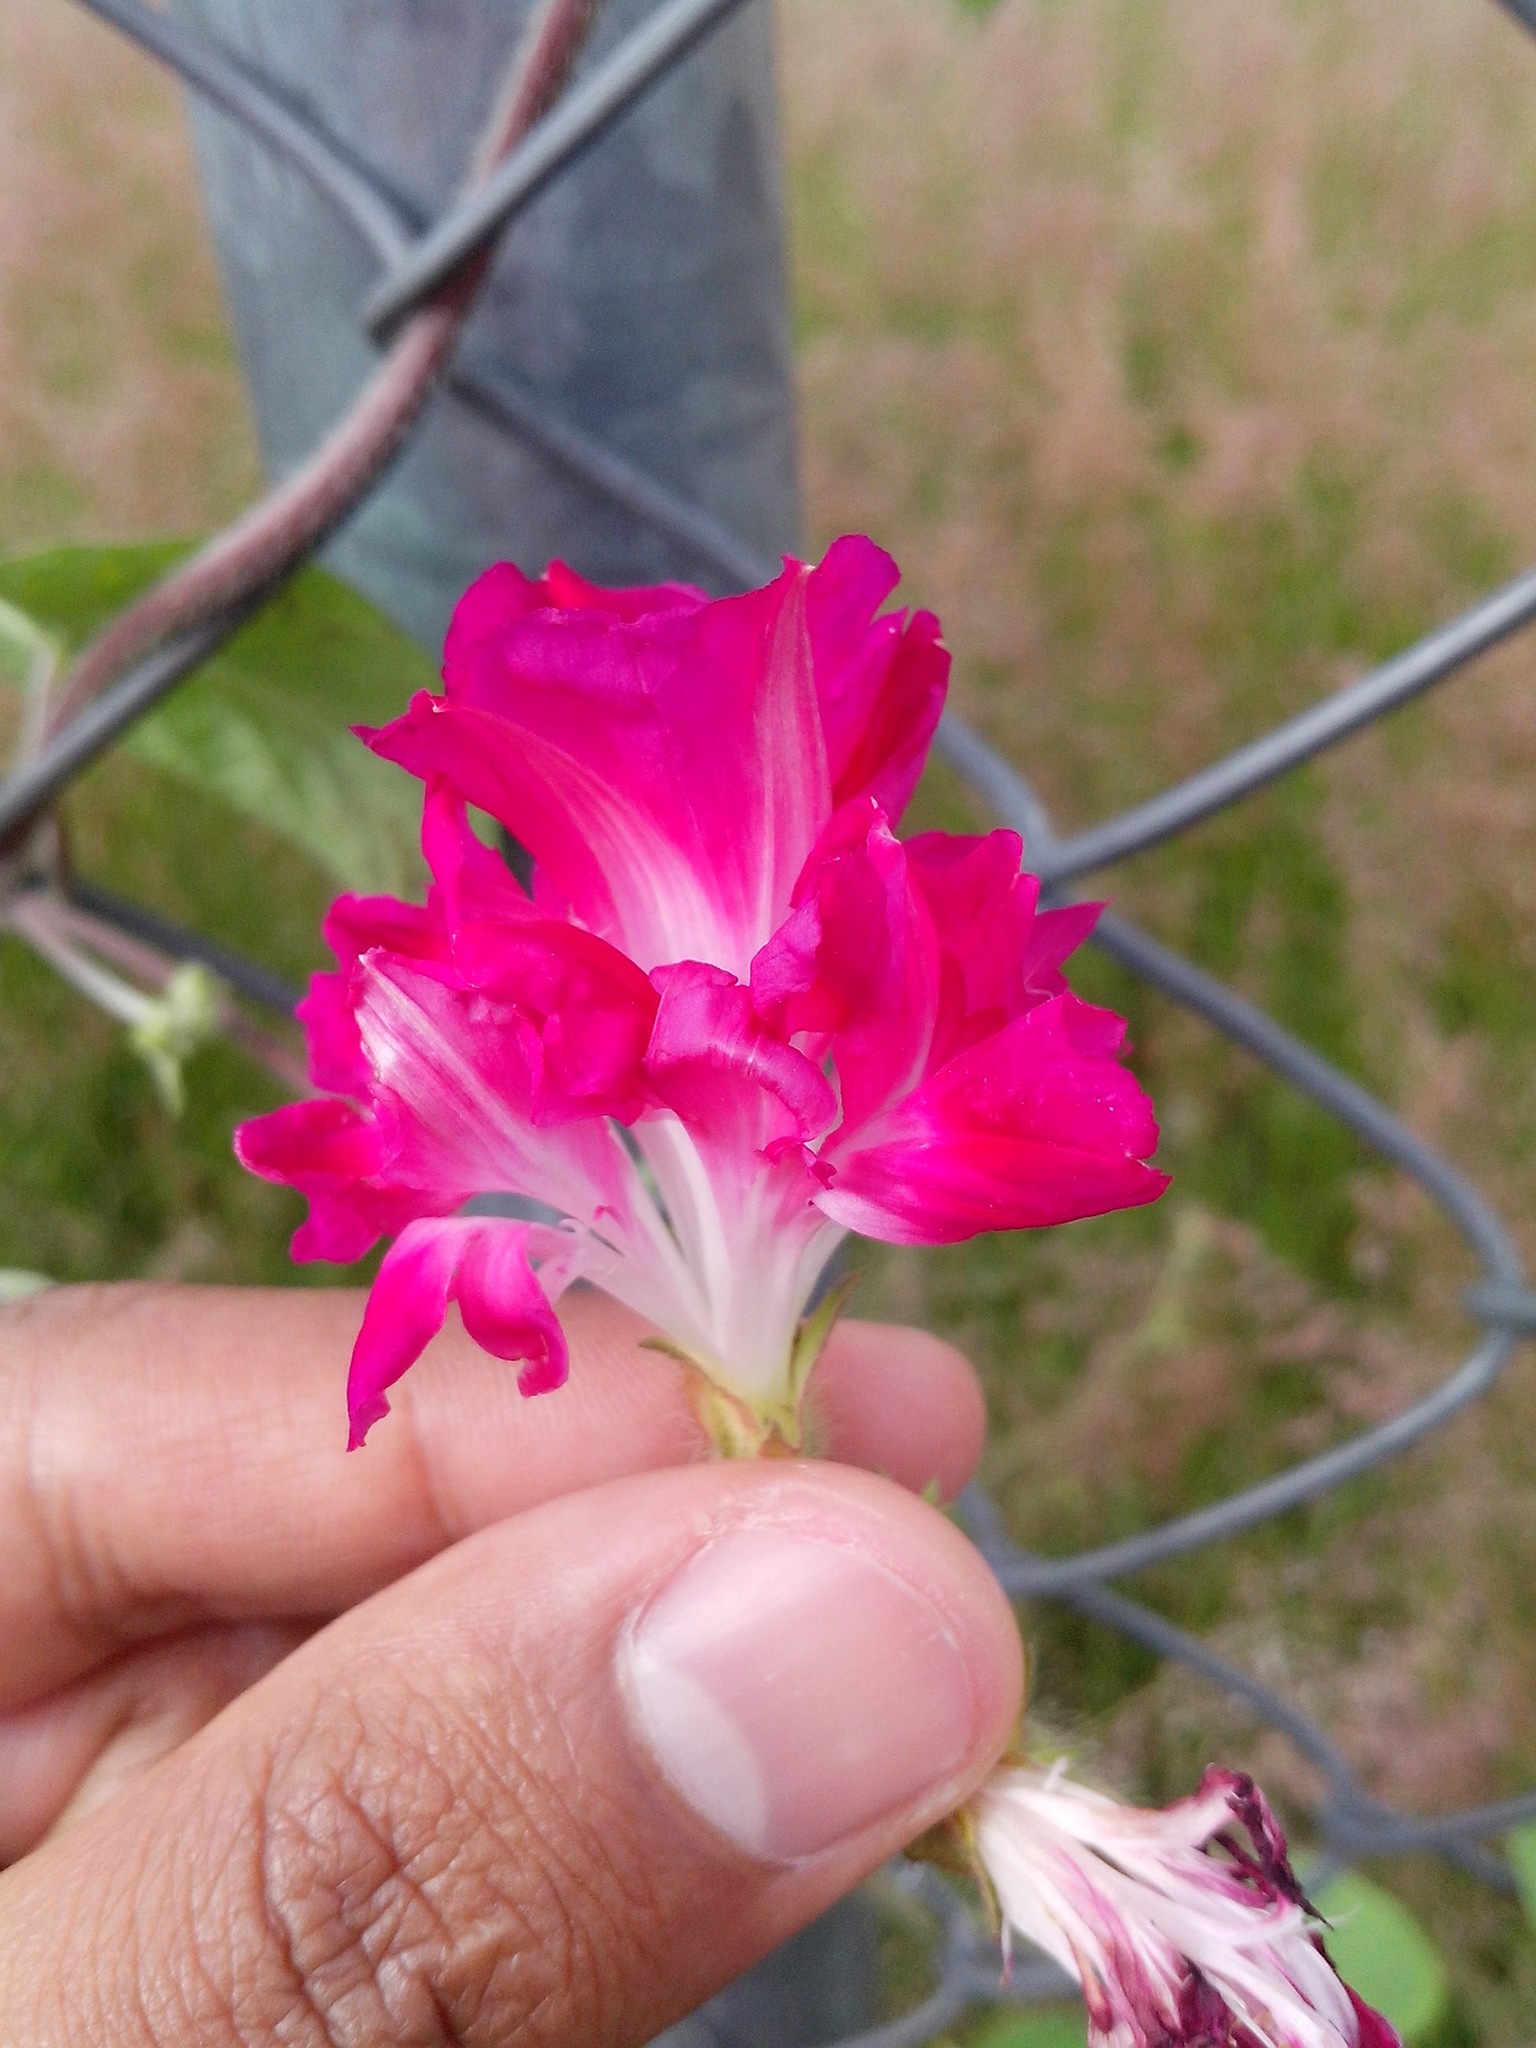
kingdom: Plantae
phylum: Tracheophyta
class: Magnoliopsida
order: Solanales
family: Convolvulaceae
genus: Ipomoea
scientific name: Ipomoea purpurea
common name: Common morning-glory
